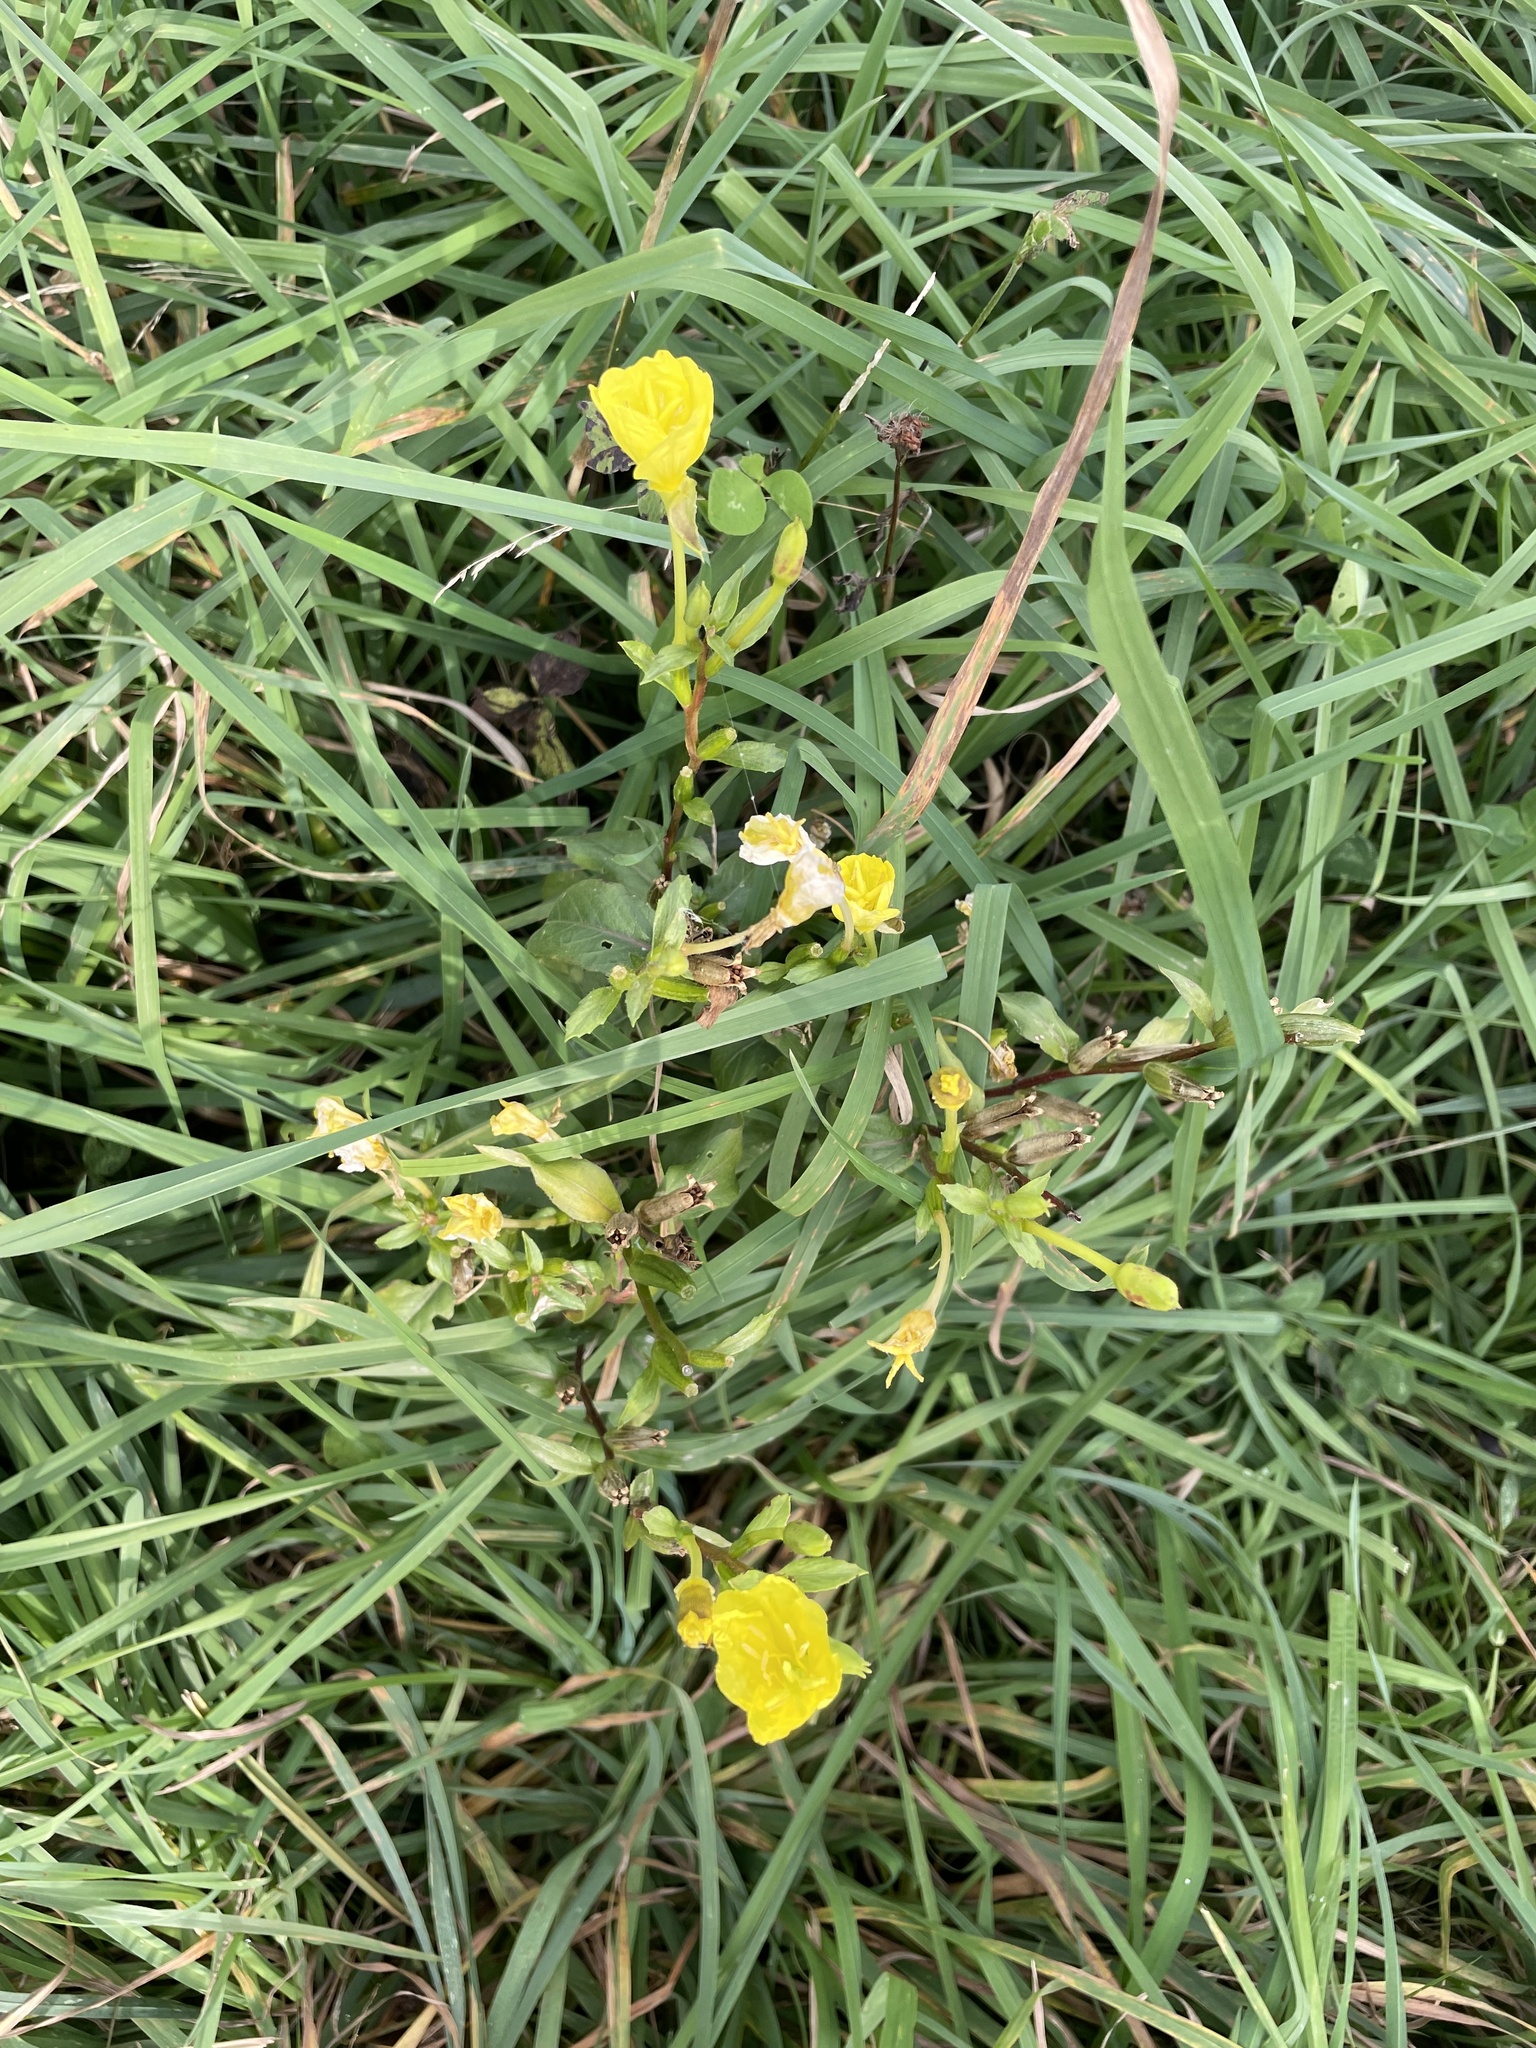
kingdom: Plantae
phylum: Tracheophyta
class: Magnoliopsida
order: Myrtales
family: Onagraceae
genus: Oenothera
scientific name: Oenothera biennis
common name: Common evening-primrose
